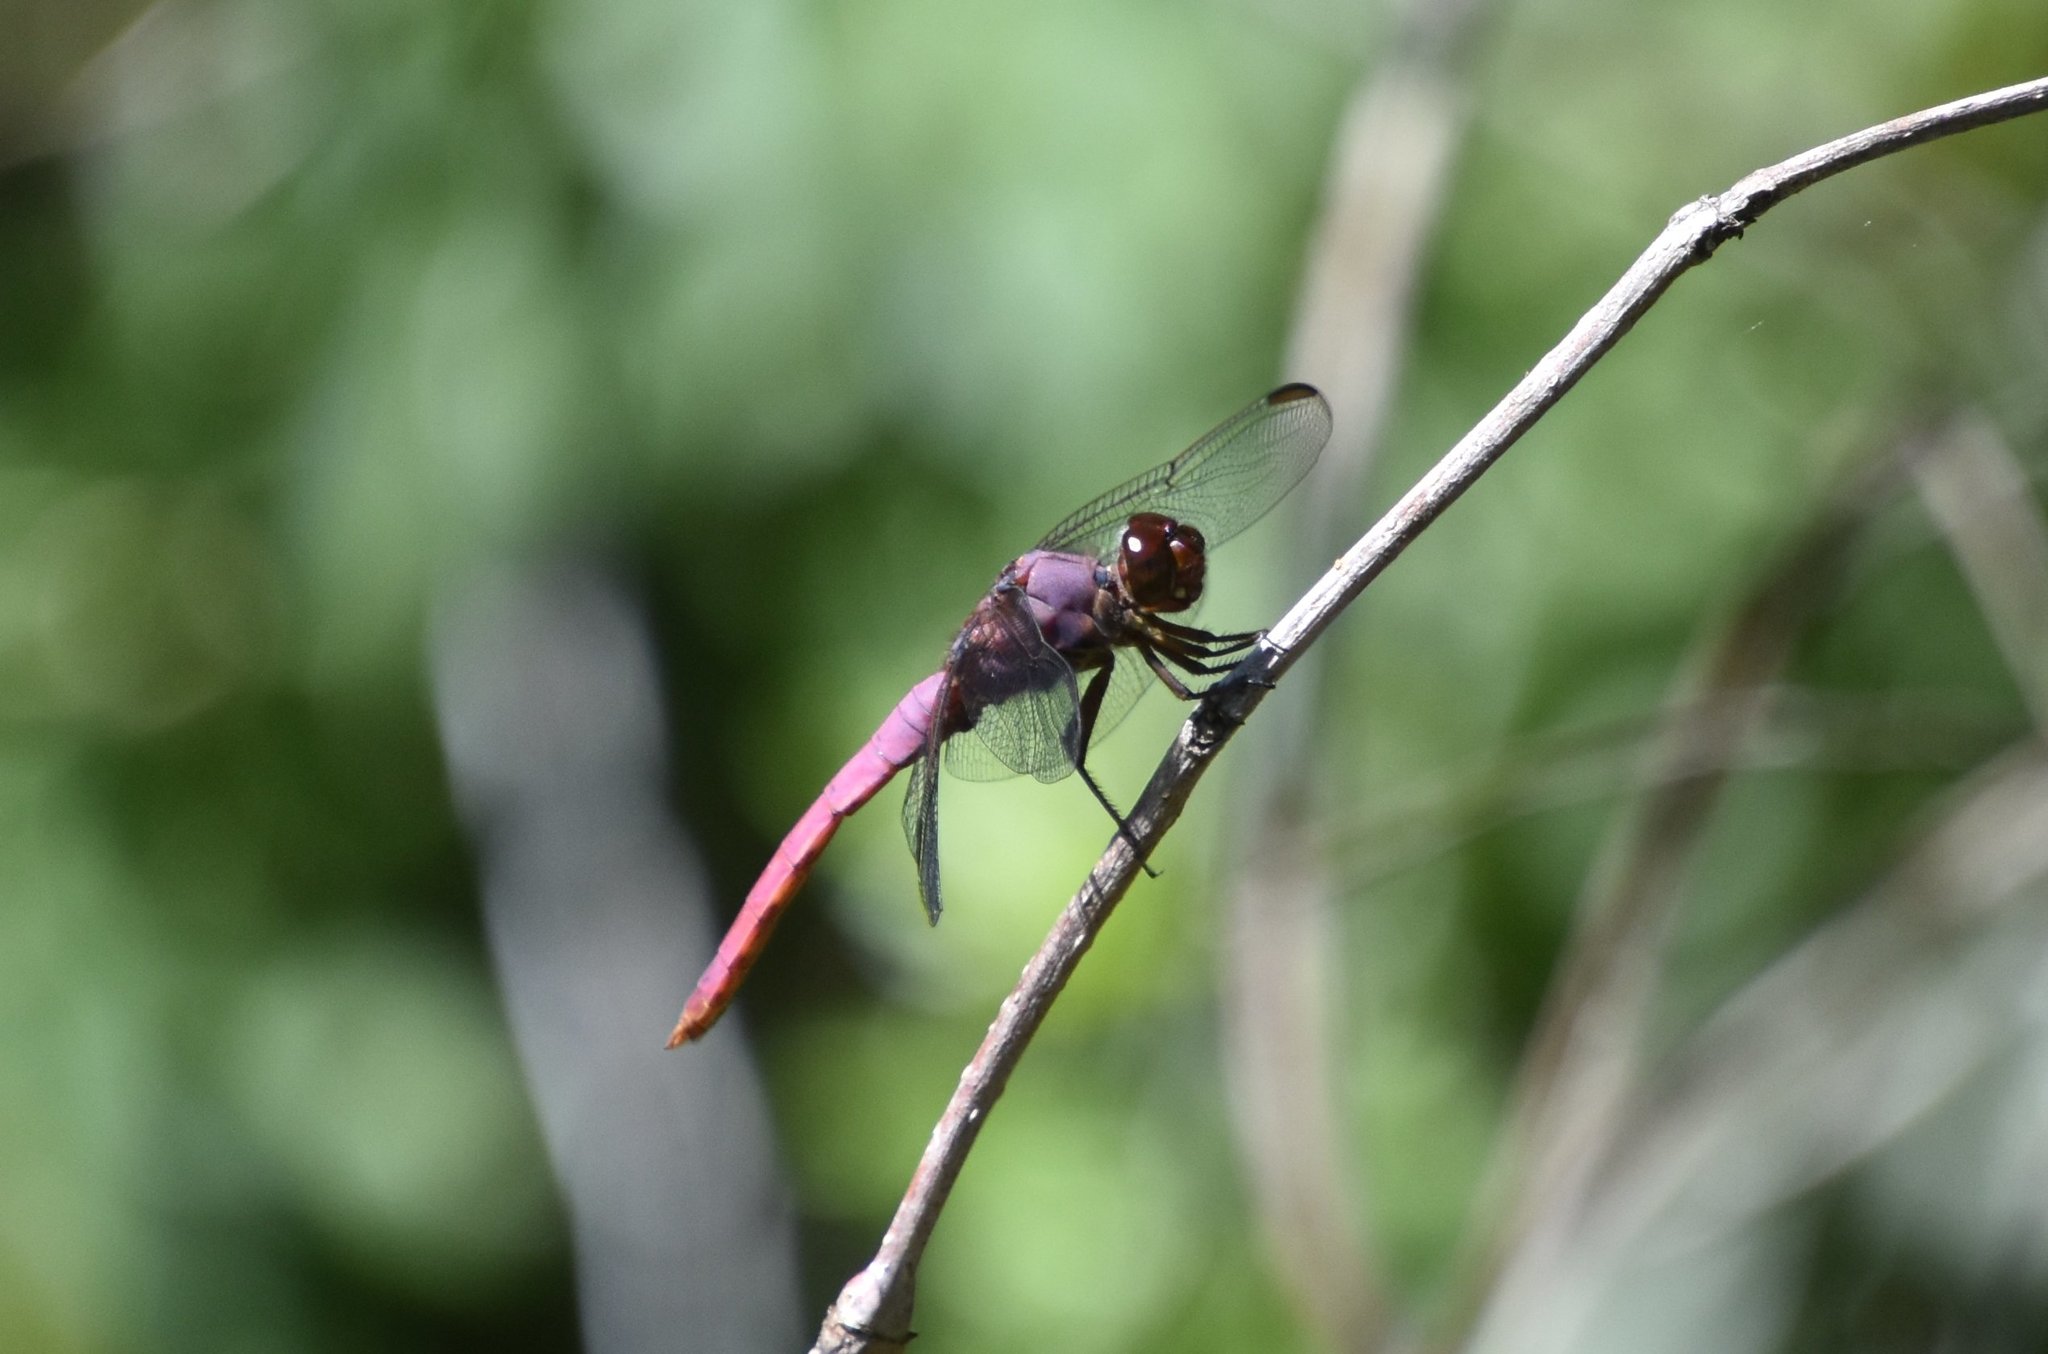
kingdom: Animalia
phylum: Arthropoda
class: Insecta
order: Odonata
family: Libellulidae
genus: Orthemis
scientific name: Orthemis ferruginea
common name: Roseate skimmer
